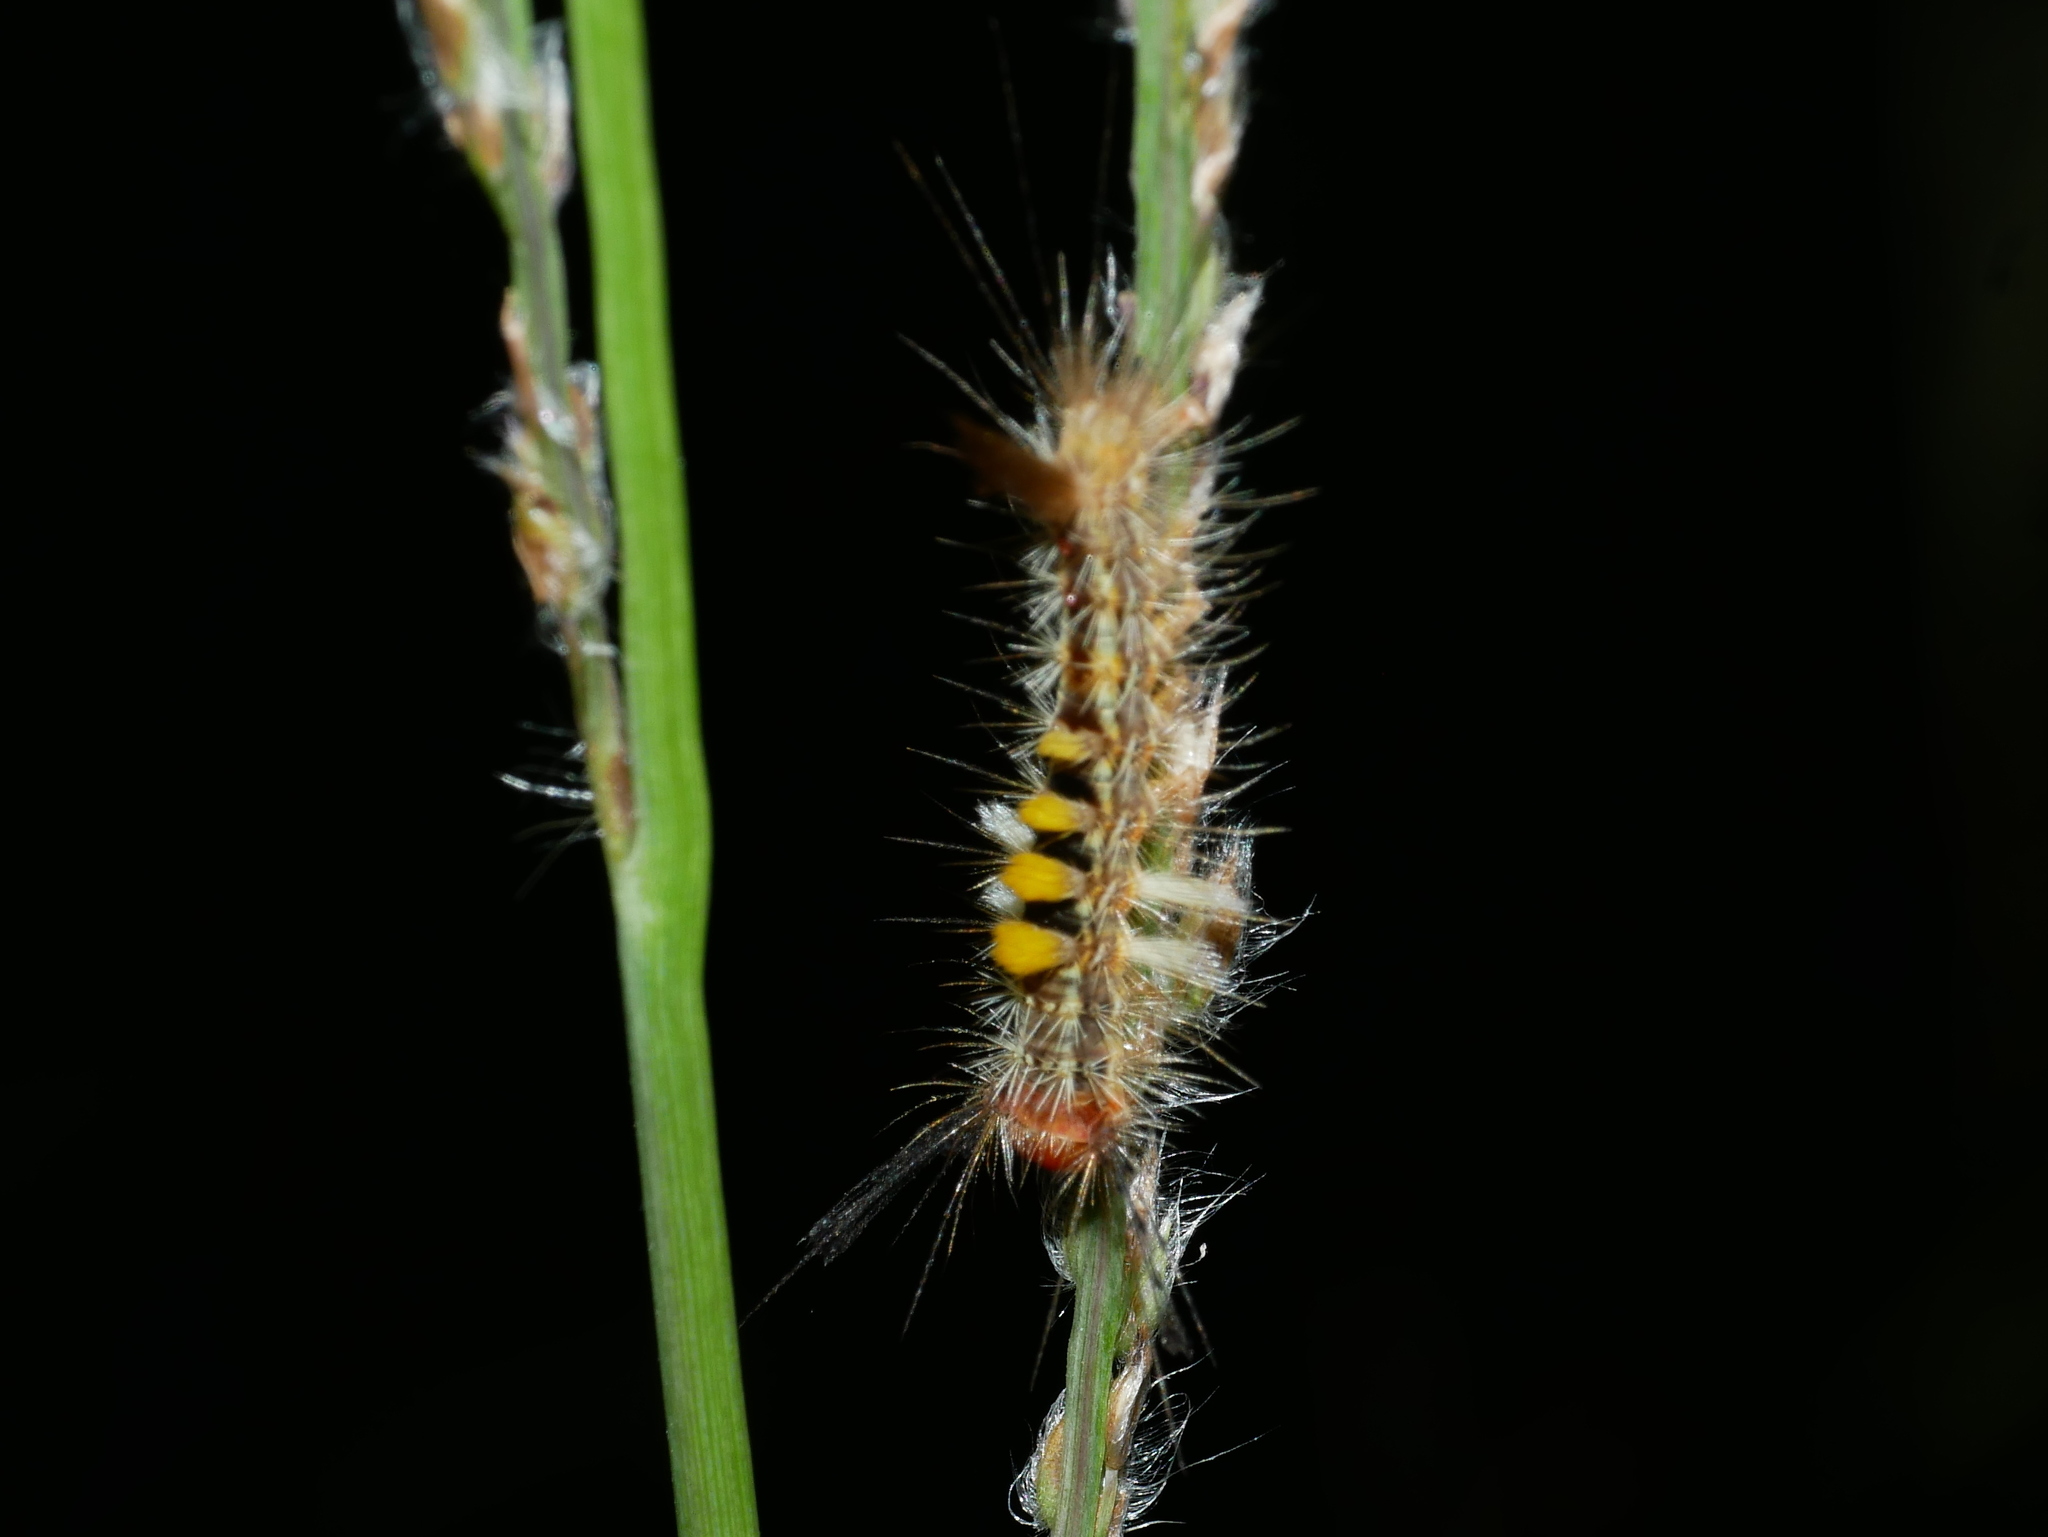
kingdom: Animalia
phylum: Arthropoda
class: Insecta
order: Lepidoptera
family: Erebidae
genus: Orgyia
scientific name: Orgyia postica
